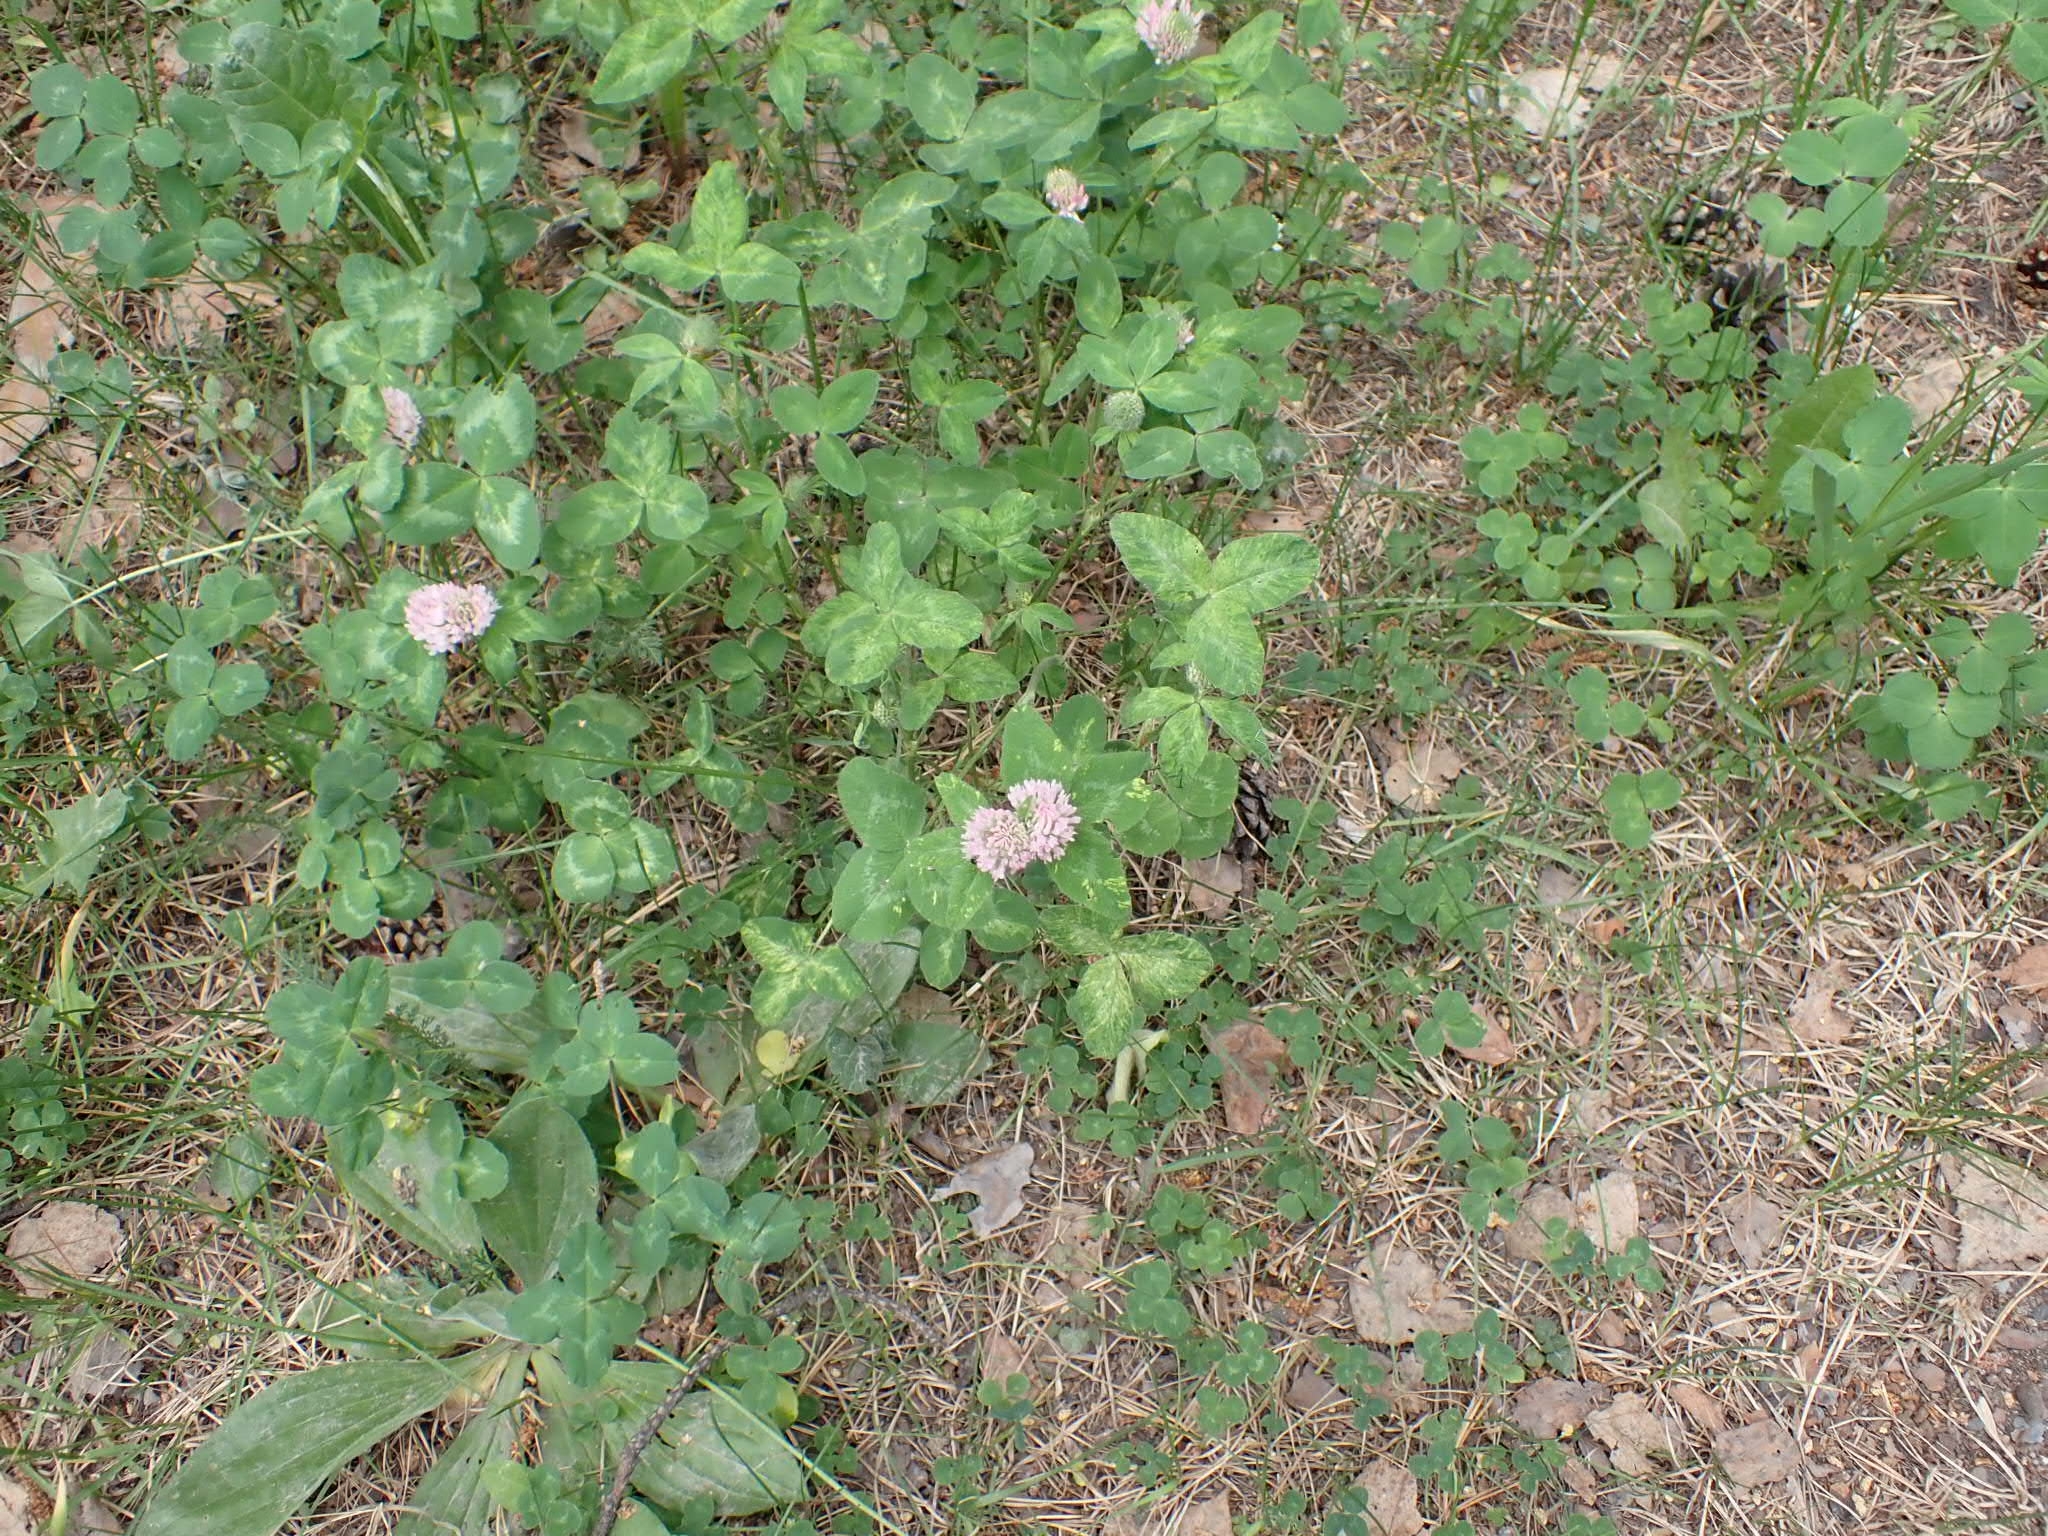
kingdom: Plantae
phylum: Tracheophyta
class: Magnoliopsida
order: Fabales
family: Fabaceae
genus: Trifolium
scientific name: Trifolium pratense
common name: Red clover
